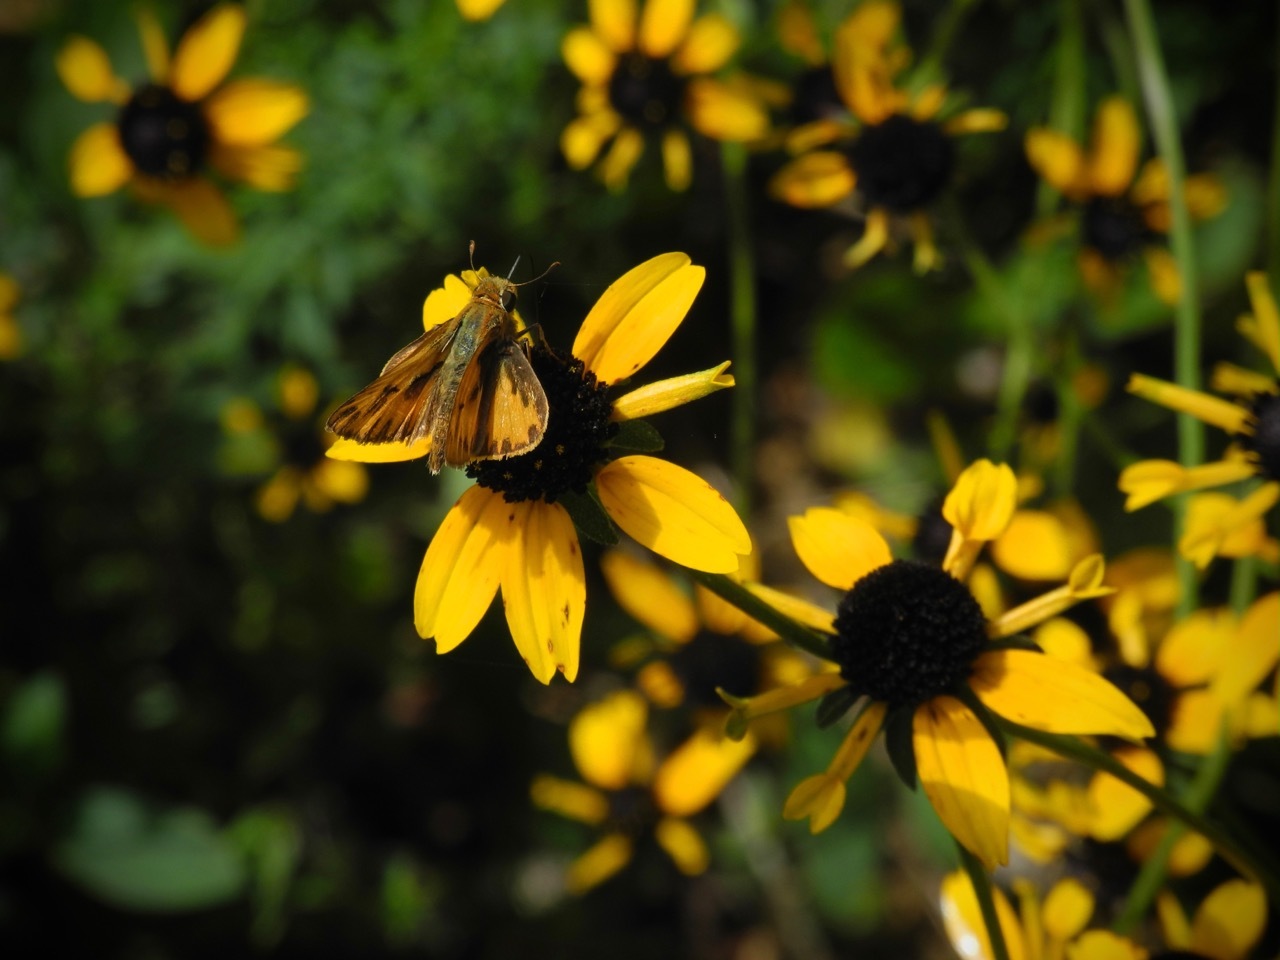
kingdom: Animalia
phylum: Arthropoda
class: Insecta
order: Lepidoptera
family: Hesperiidae
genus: Hylephila
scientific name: Hylephila phyleus
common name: Fiery skipper
